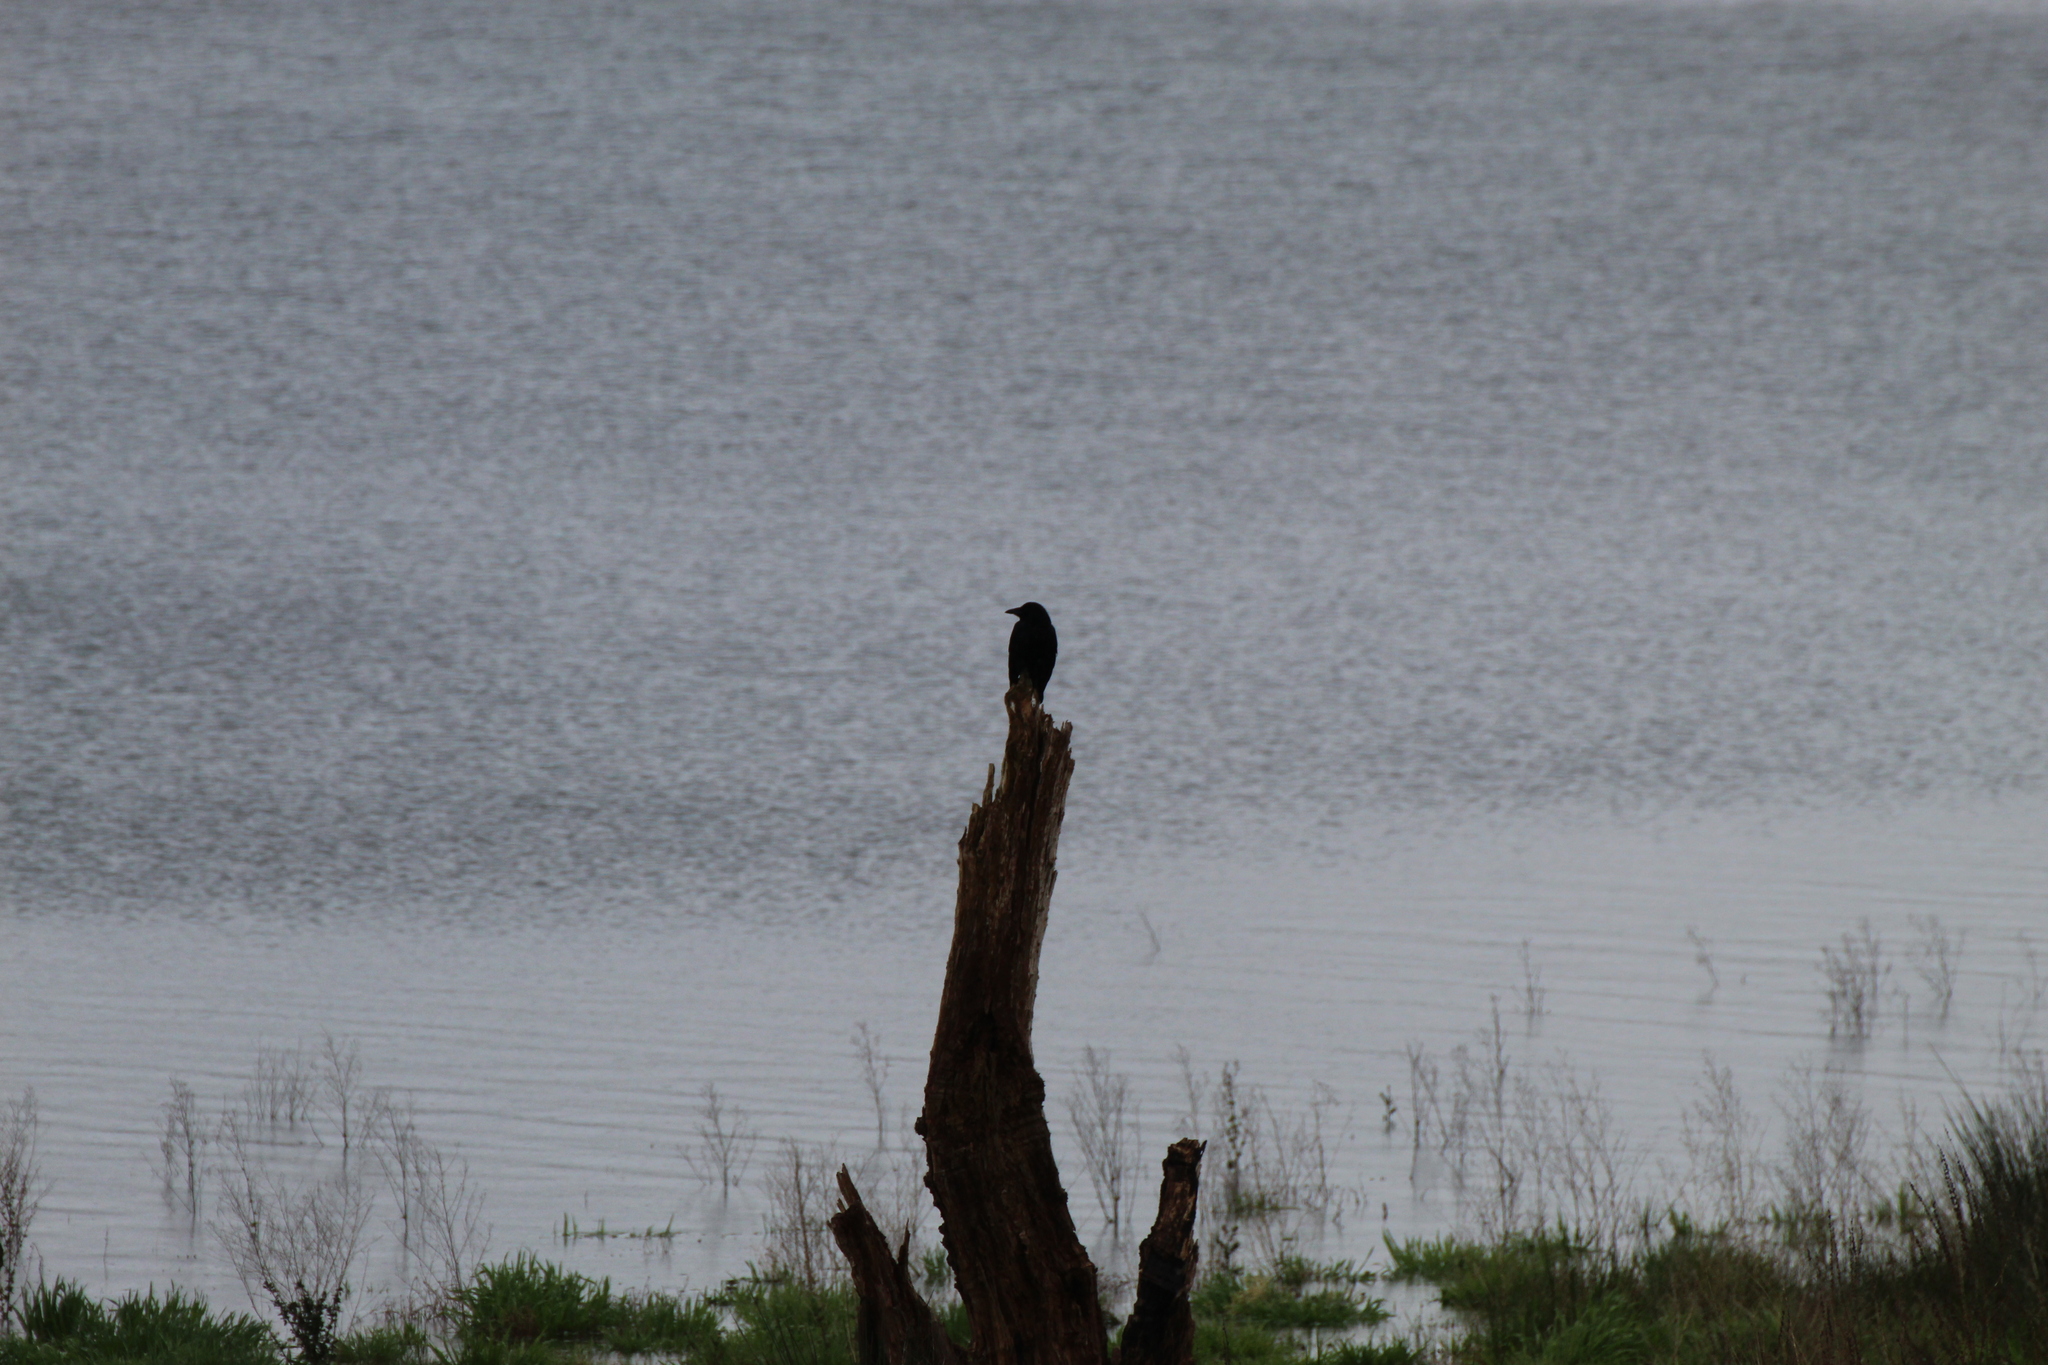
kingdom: Animalia
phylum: Chordata
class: Aves
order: Passeriformes
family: Corvidae
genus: Corvus
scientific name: Corvus corone
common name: Carrion crow
